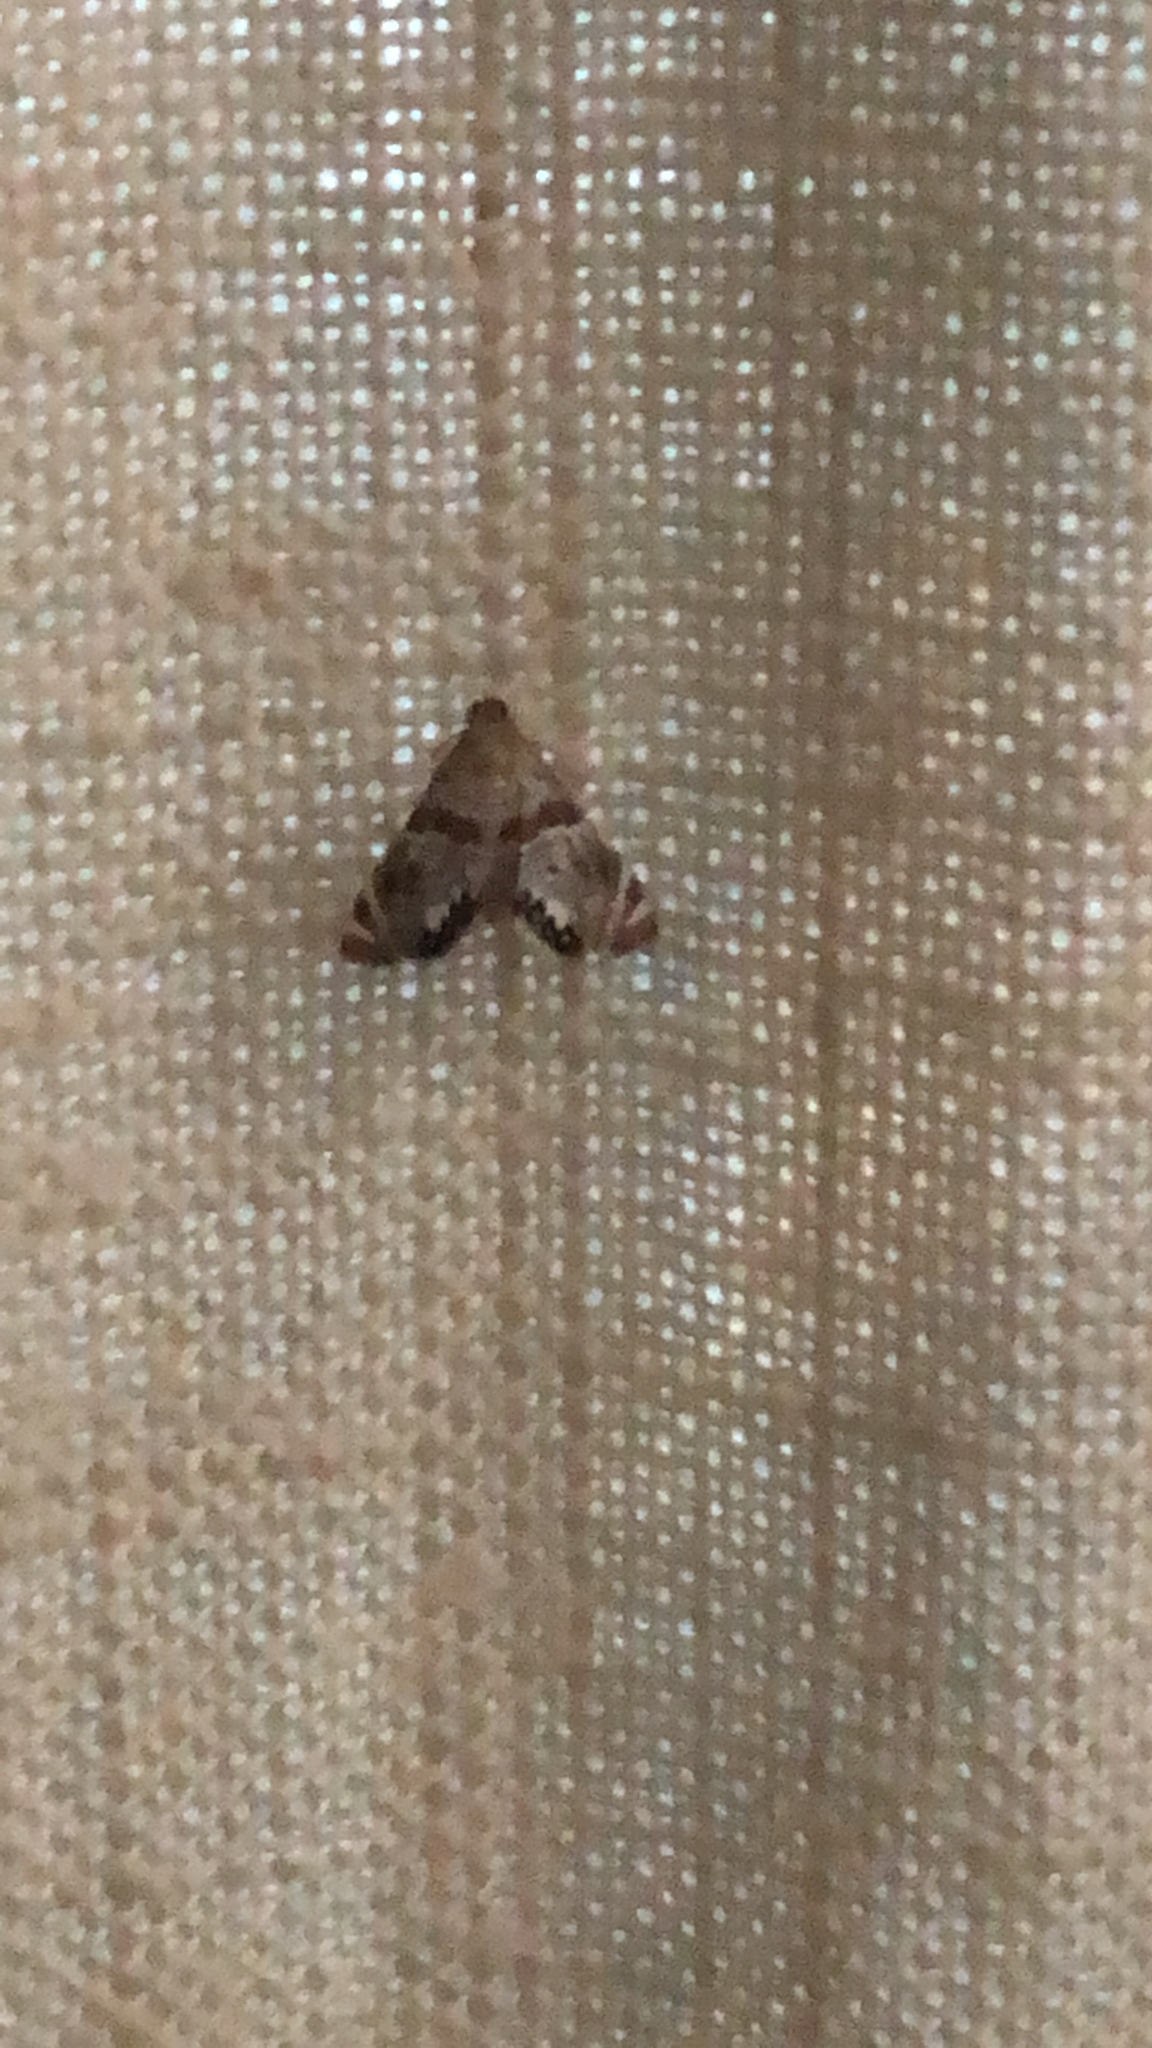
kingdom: Animalia
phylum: Arthropoda
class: Insecta
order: Lepidoptera
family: Crambidae
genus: Petrophila
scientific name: Petrophila jaliscalis
